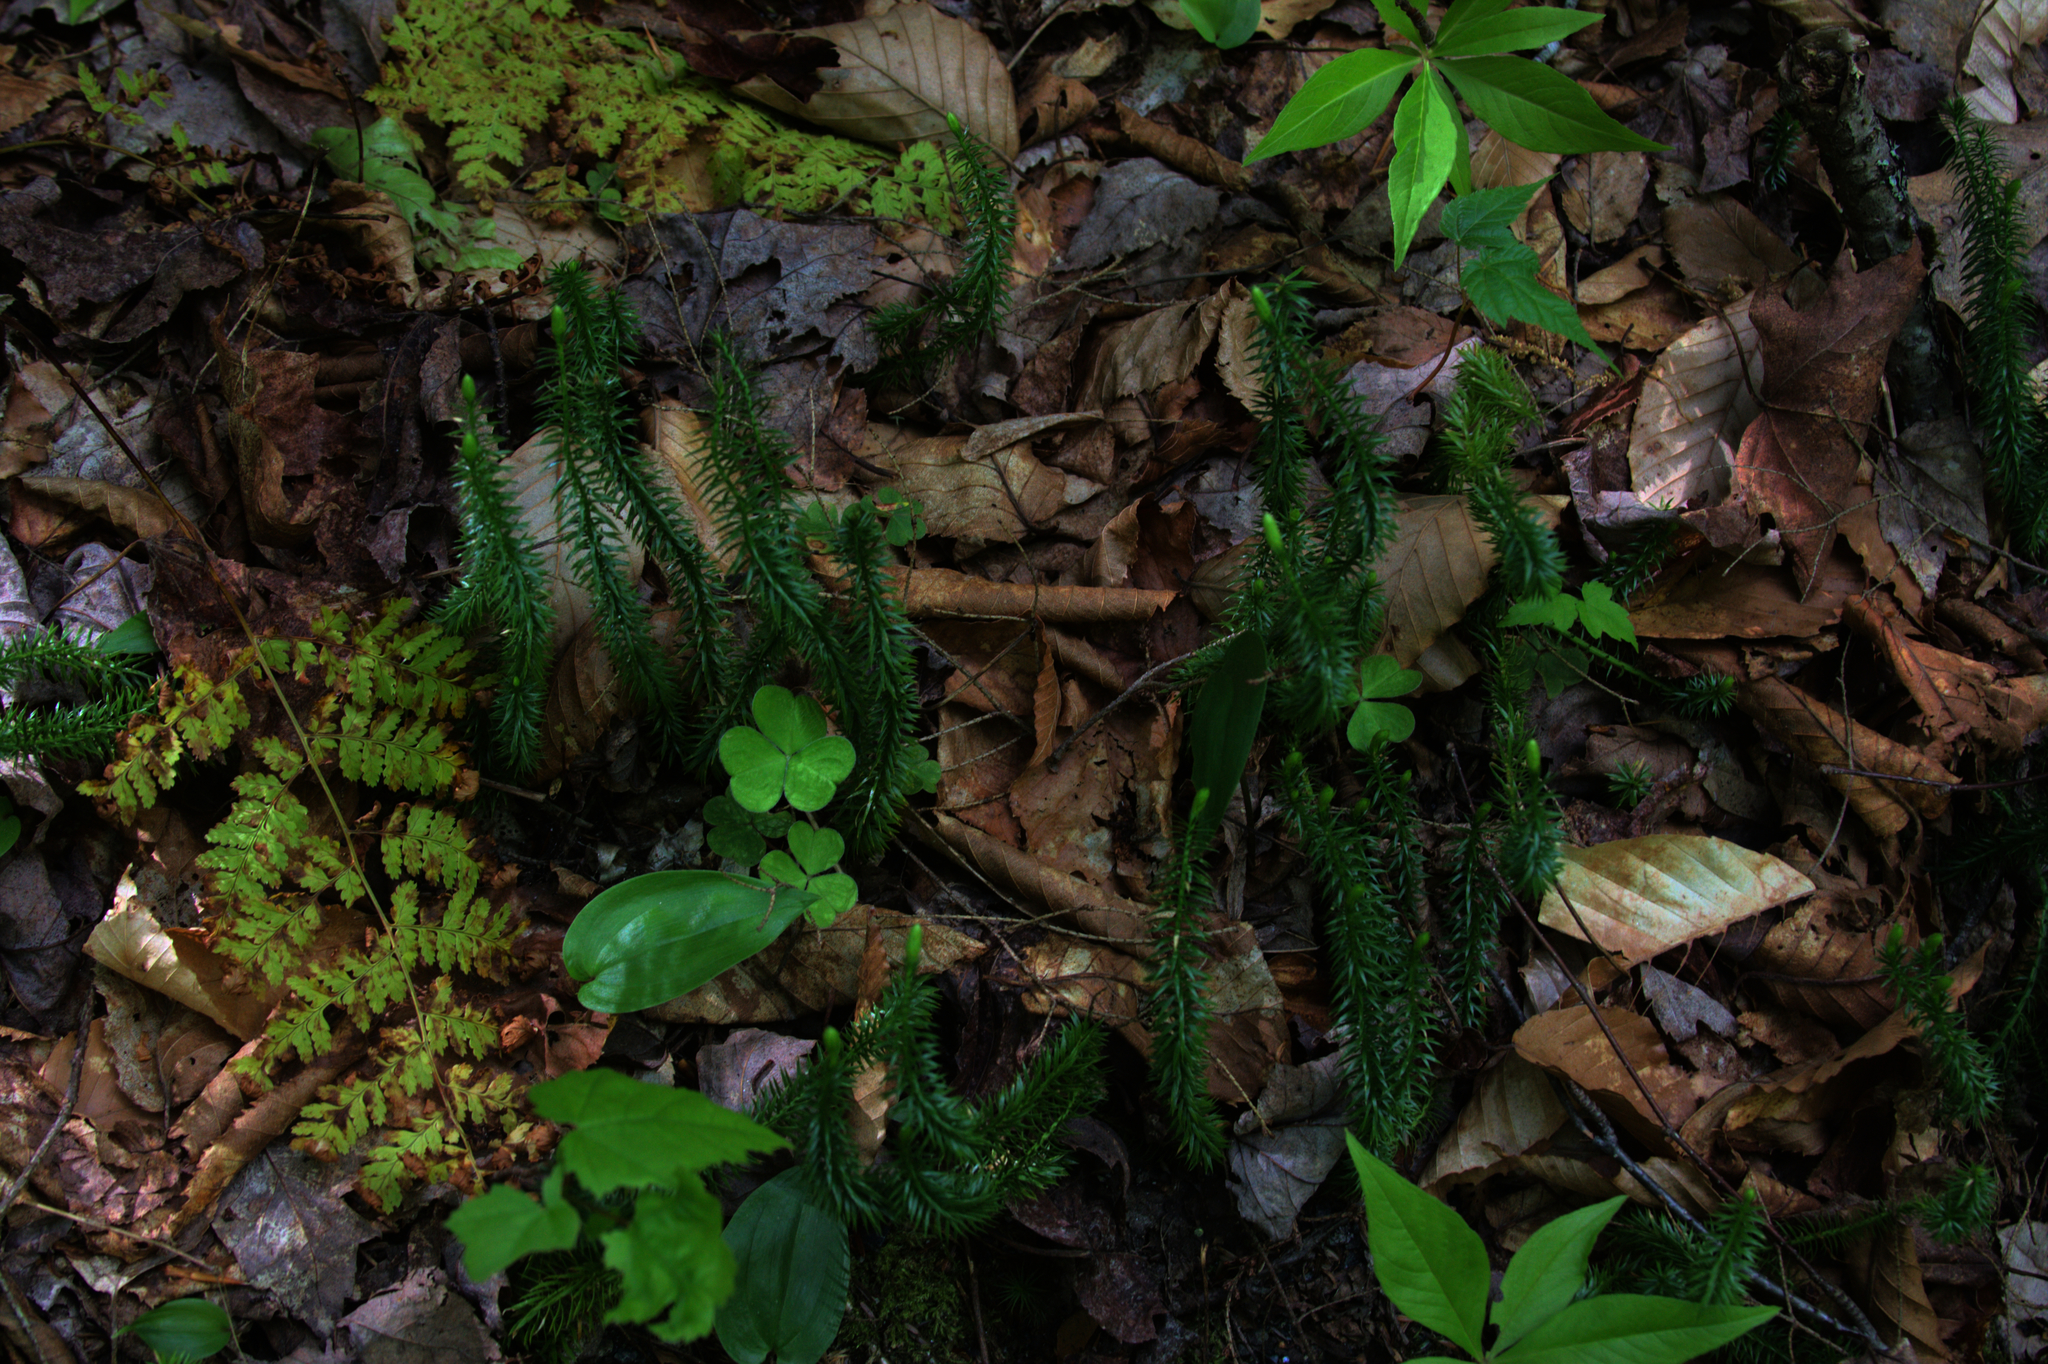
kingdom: Plantae
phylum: Tracheophyta
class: Lycopodiopsida
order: Lycopodiales
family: Lycopodiaceae
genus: Spinulum
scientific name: Spinulum annotinum
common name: Interrupted club-moss
